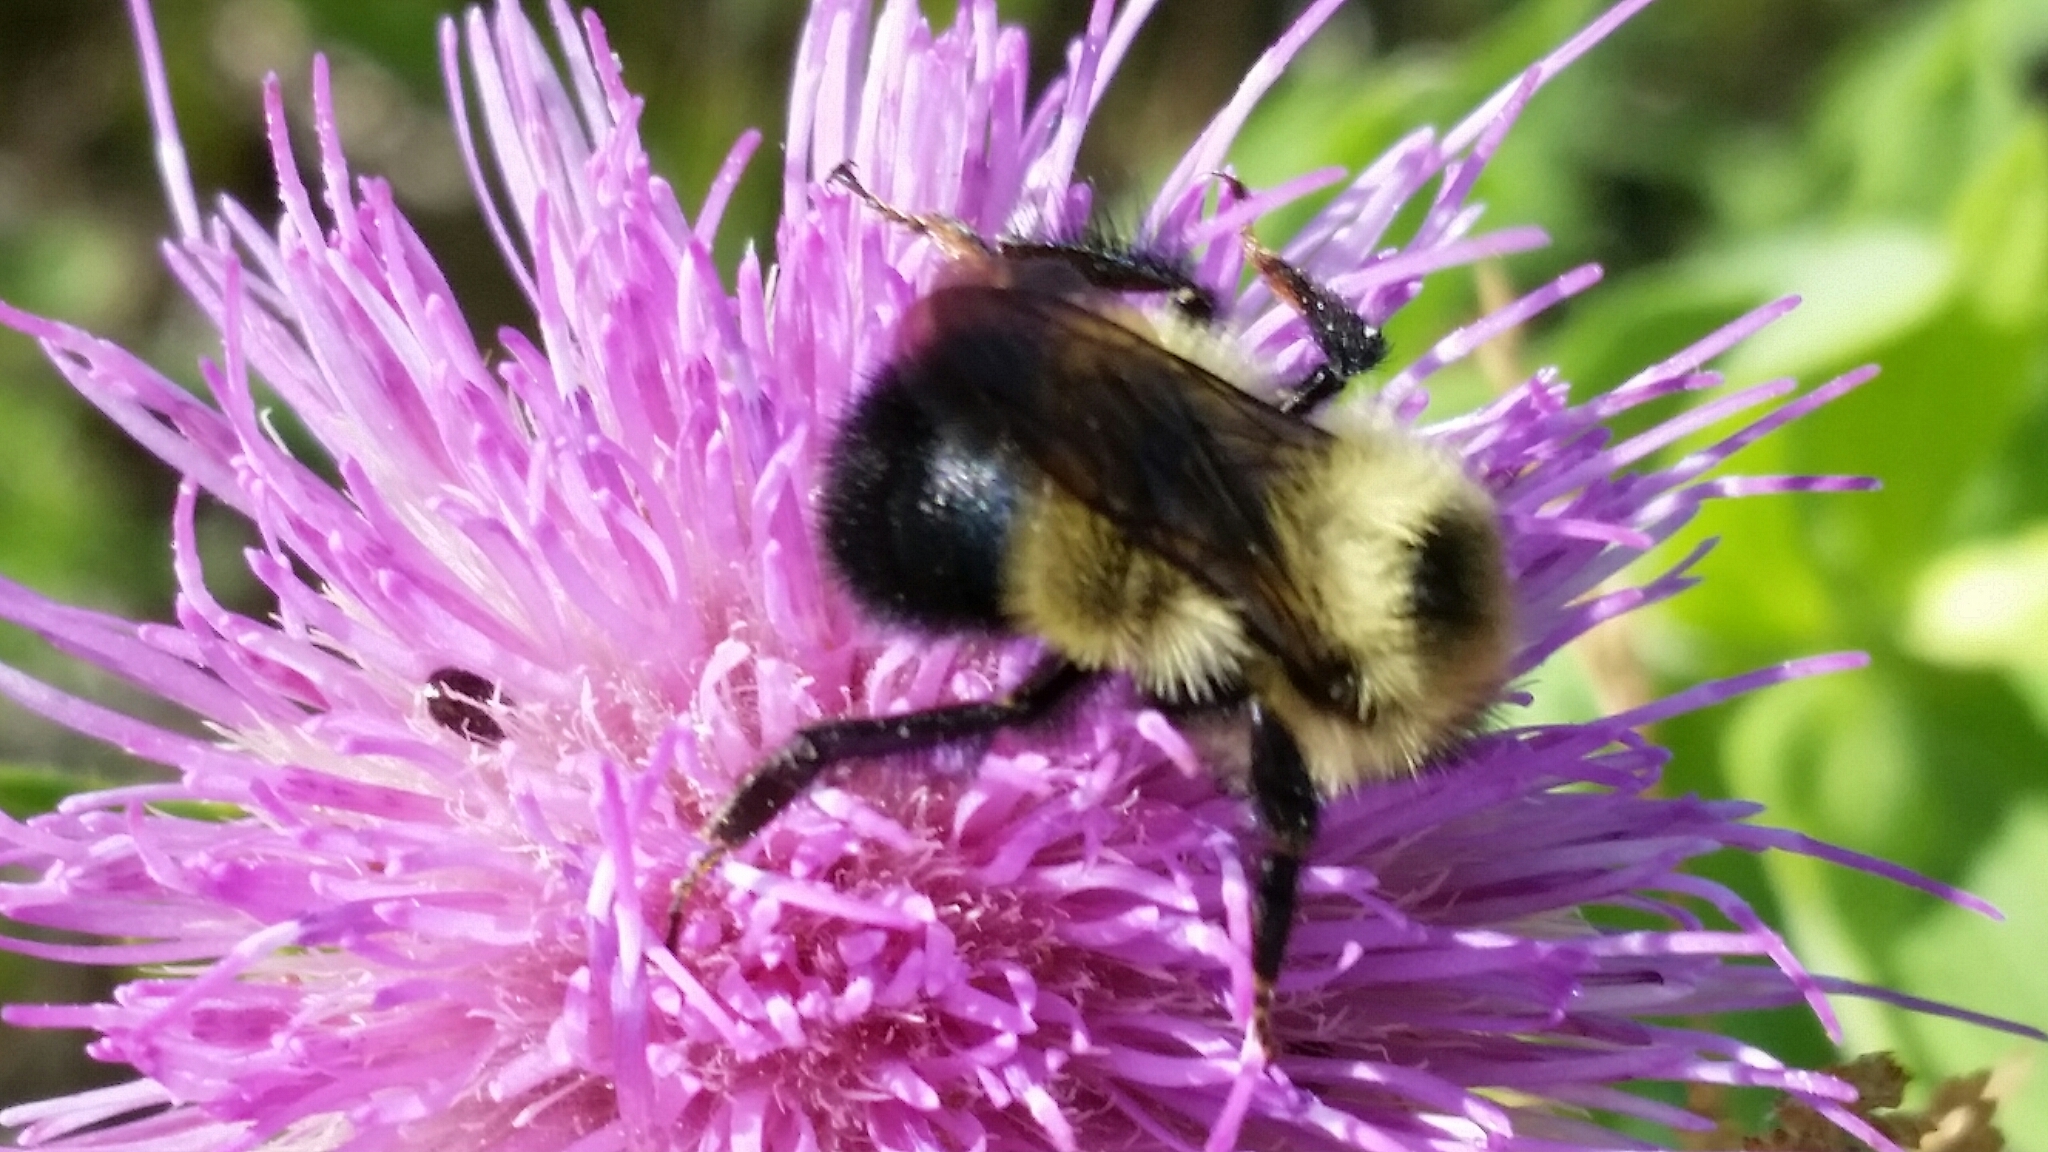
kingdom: Animalia
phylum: Arthropoda
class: Insecta
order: Hymenoptera
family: Apidae
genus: Pyrobombus
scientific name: Pyrobombus
